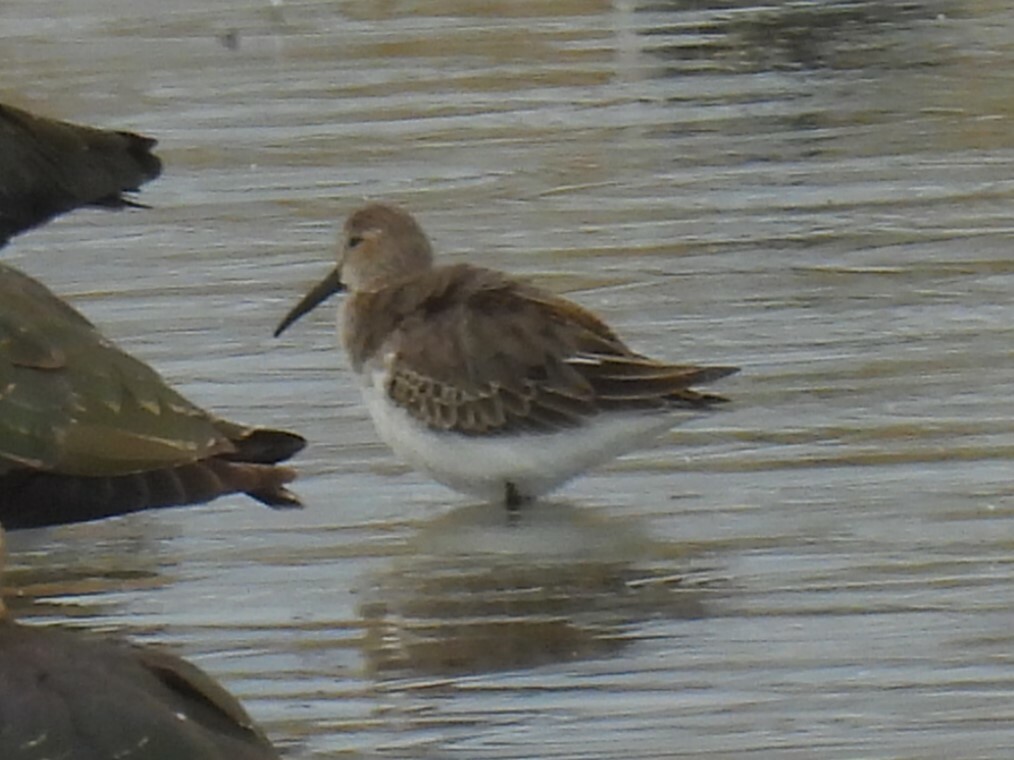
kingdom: Animalia
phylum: Chordata
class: Aves
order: Charadriiformes
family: Scolopacidae
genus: Calidris
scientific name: Calidris alpina
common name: Dunlin
